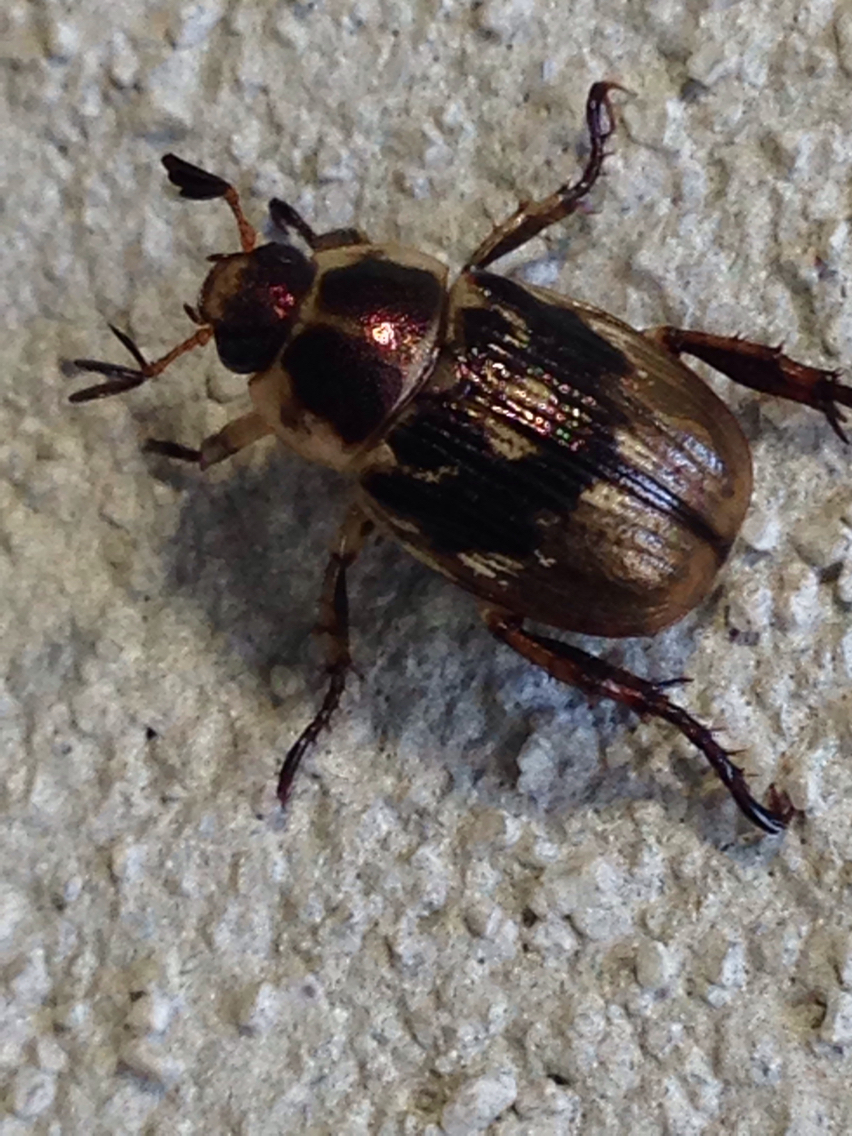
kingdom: Animalia
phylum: Arthropoda
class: Insecta
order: Coleoptera
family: Scarabaeidae
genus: Exomala
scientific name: Exomala orientalis
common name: Oriental beetle
